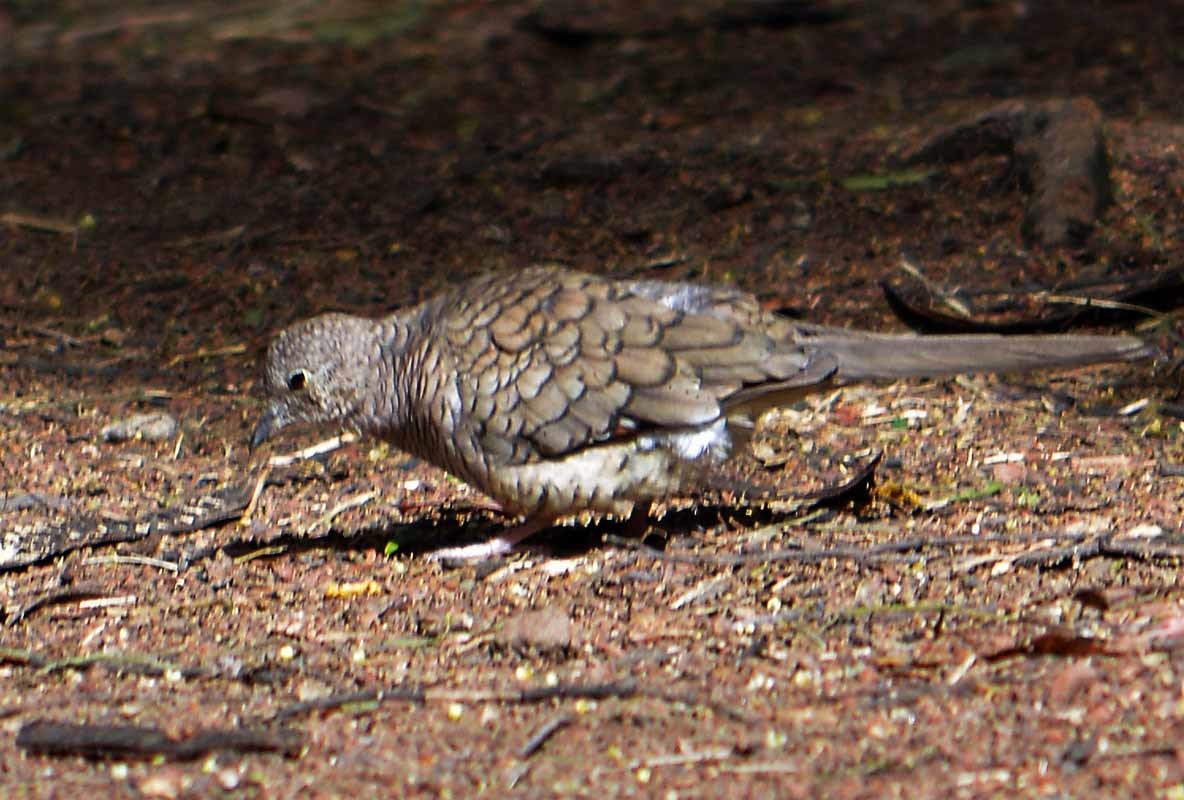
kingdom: Animalia
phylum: Chordata
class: Aves
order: Columbiformes
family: Columbidae
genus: Columbina
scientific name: Columbina inca
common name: Inca dove
